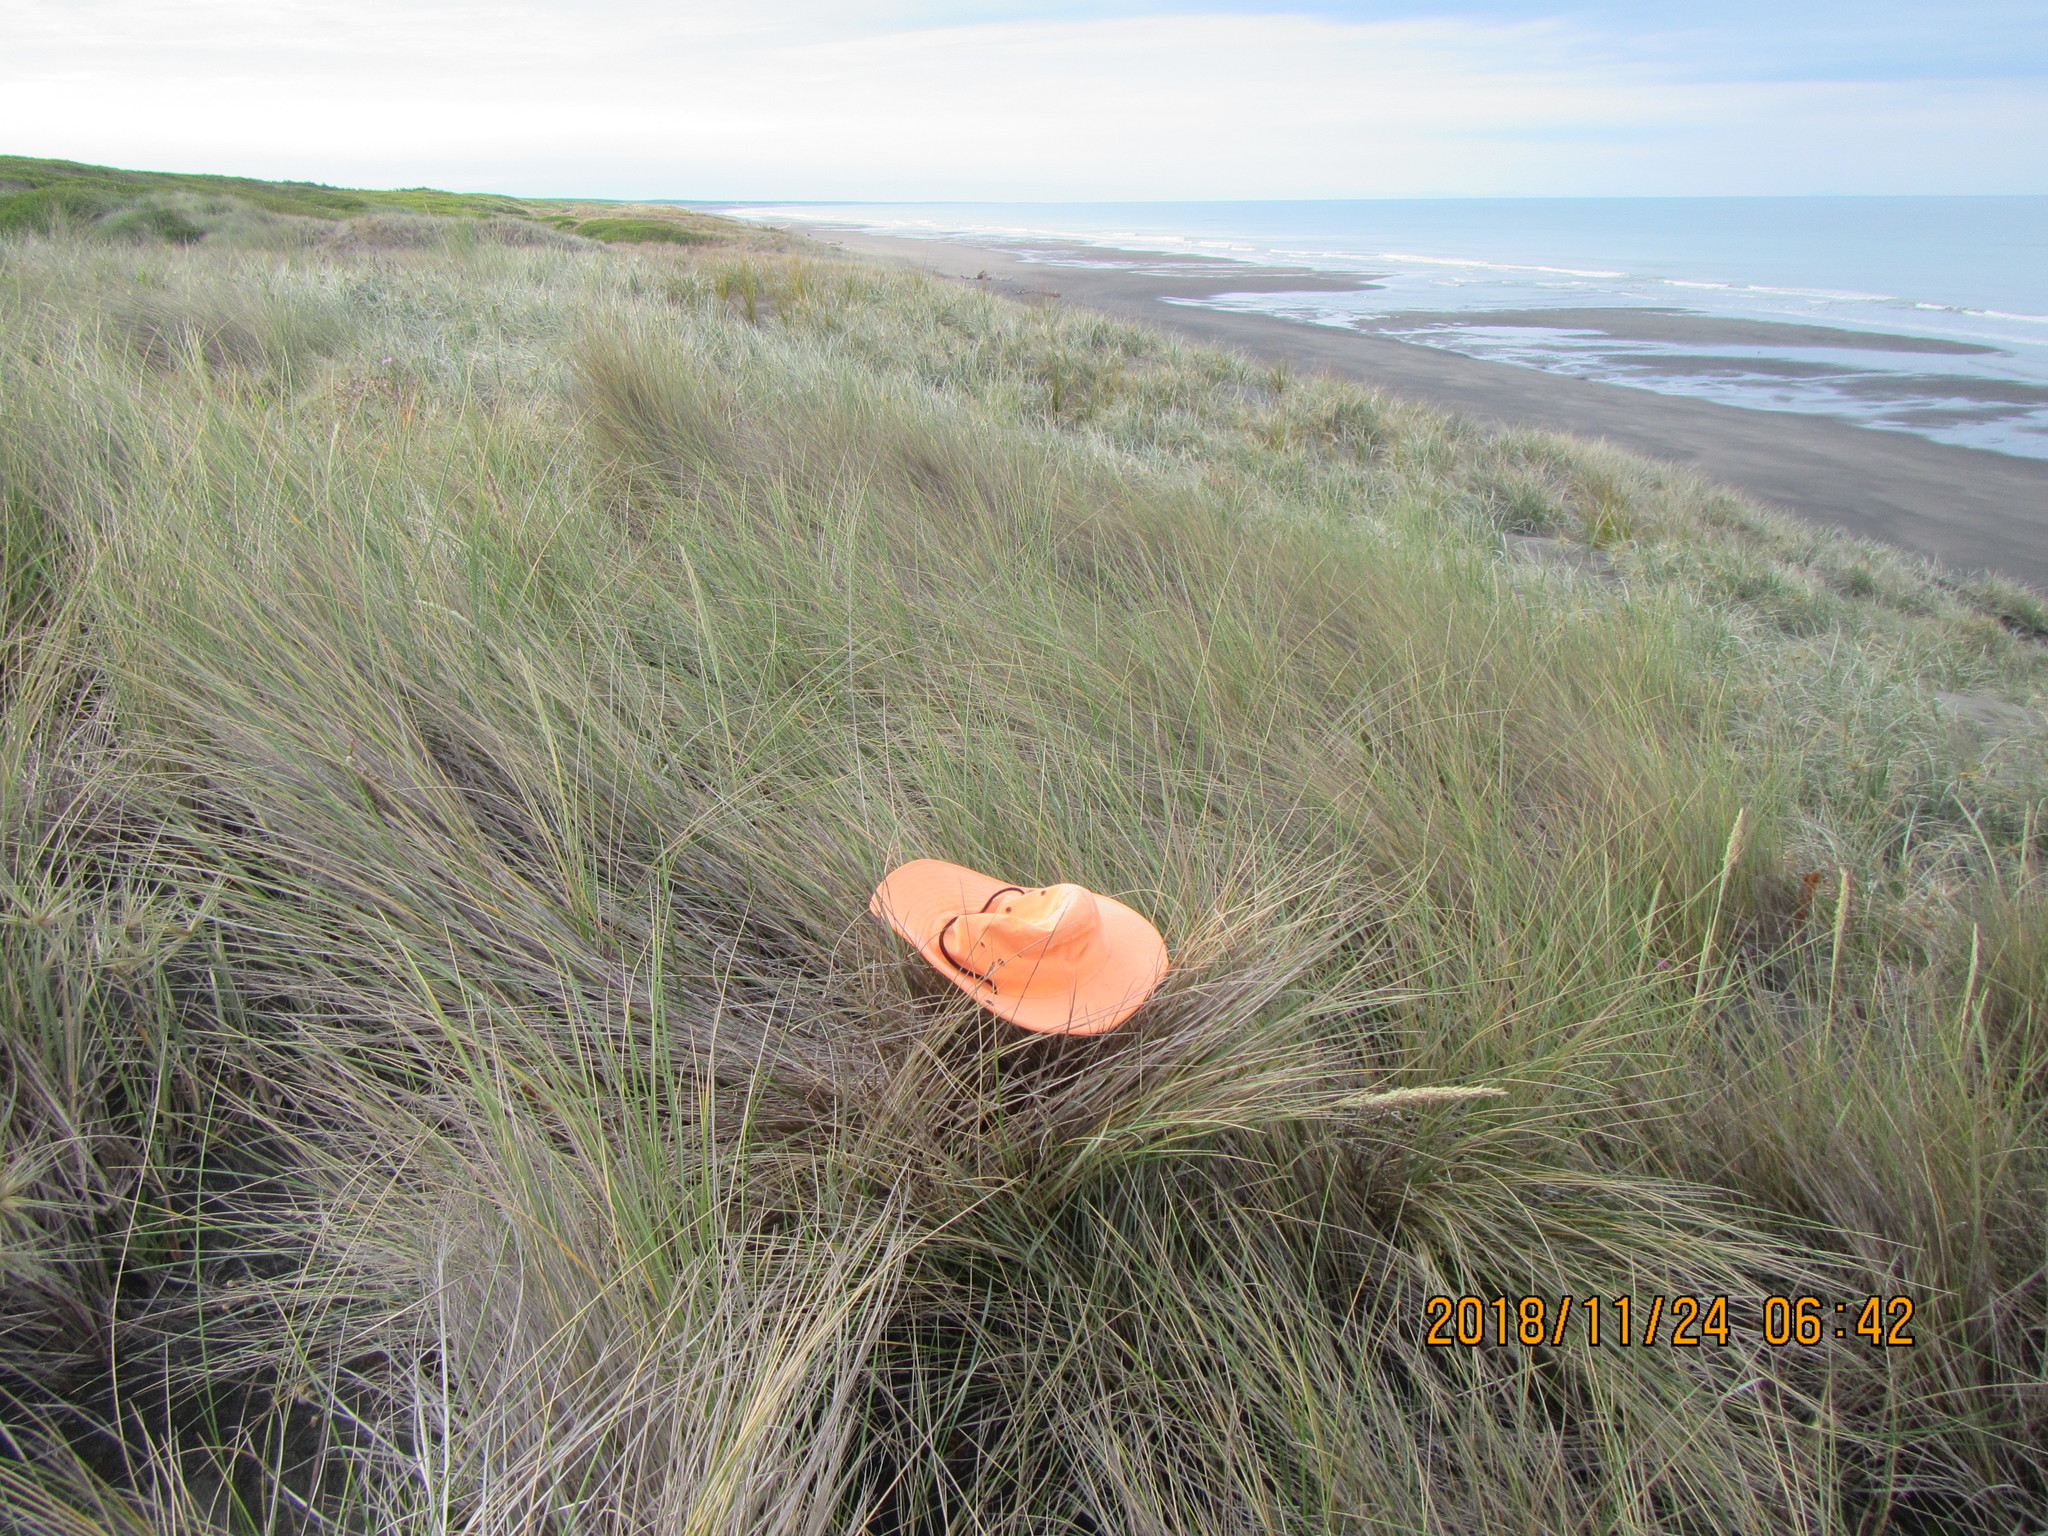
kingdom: Animalia
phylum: Arthropoda
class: Arachnida
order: Araneae
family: Pisauridae
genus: Dolomedes
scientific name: Dolomedes minor
